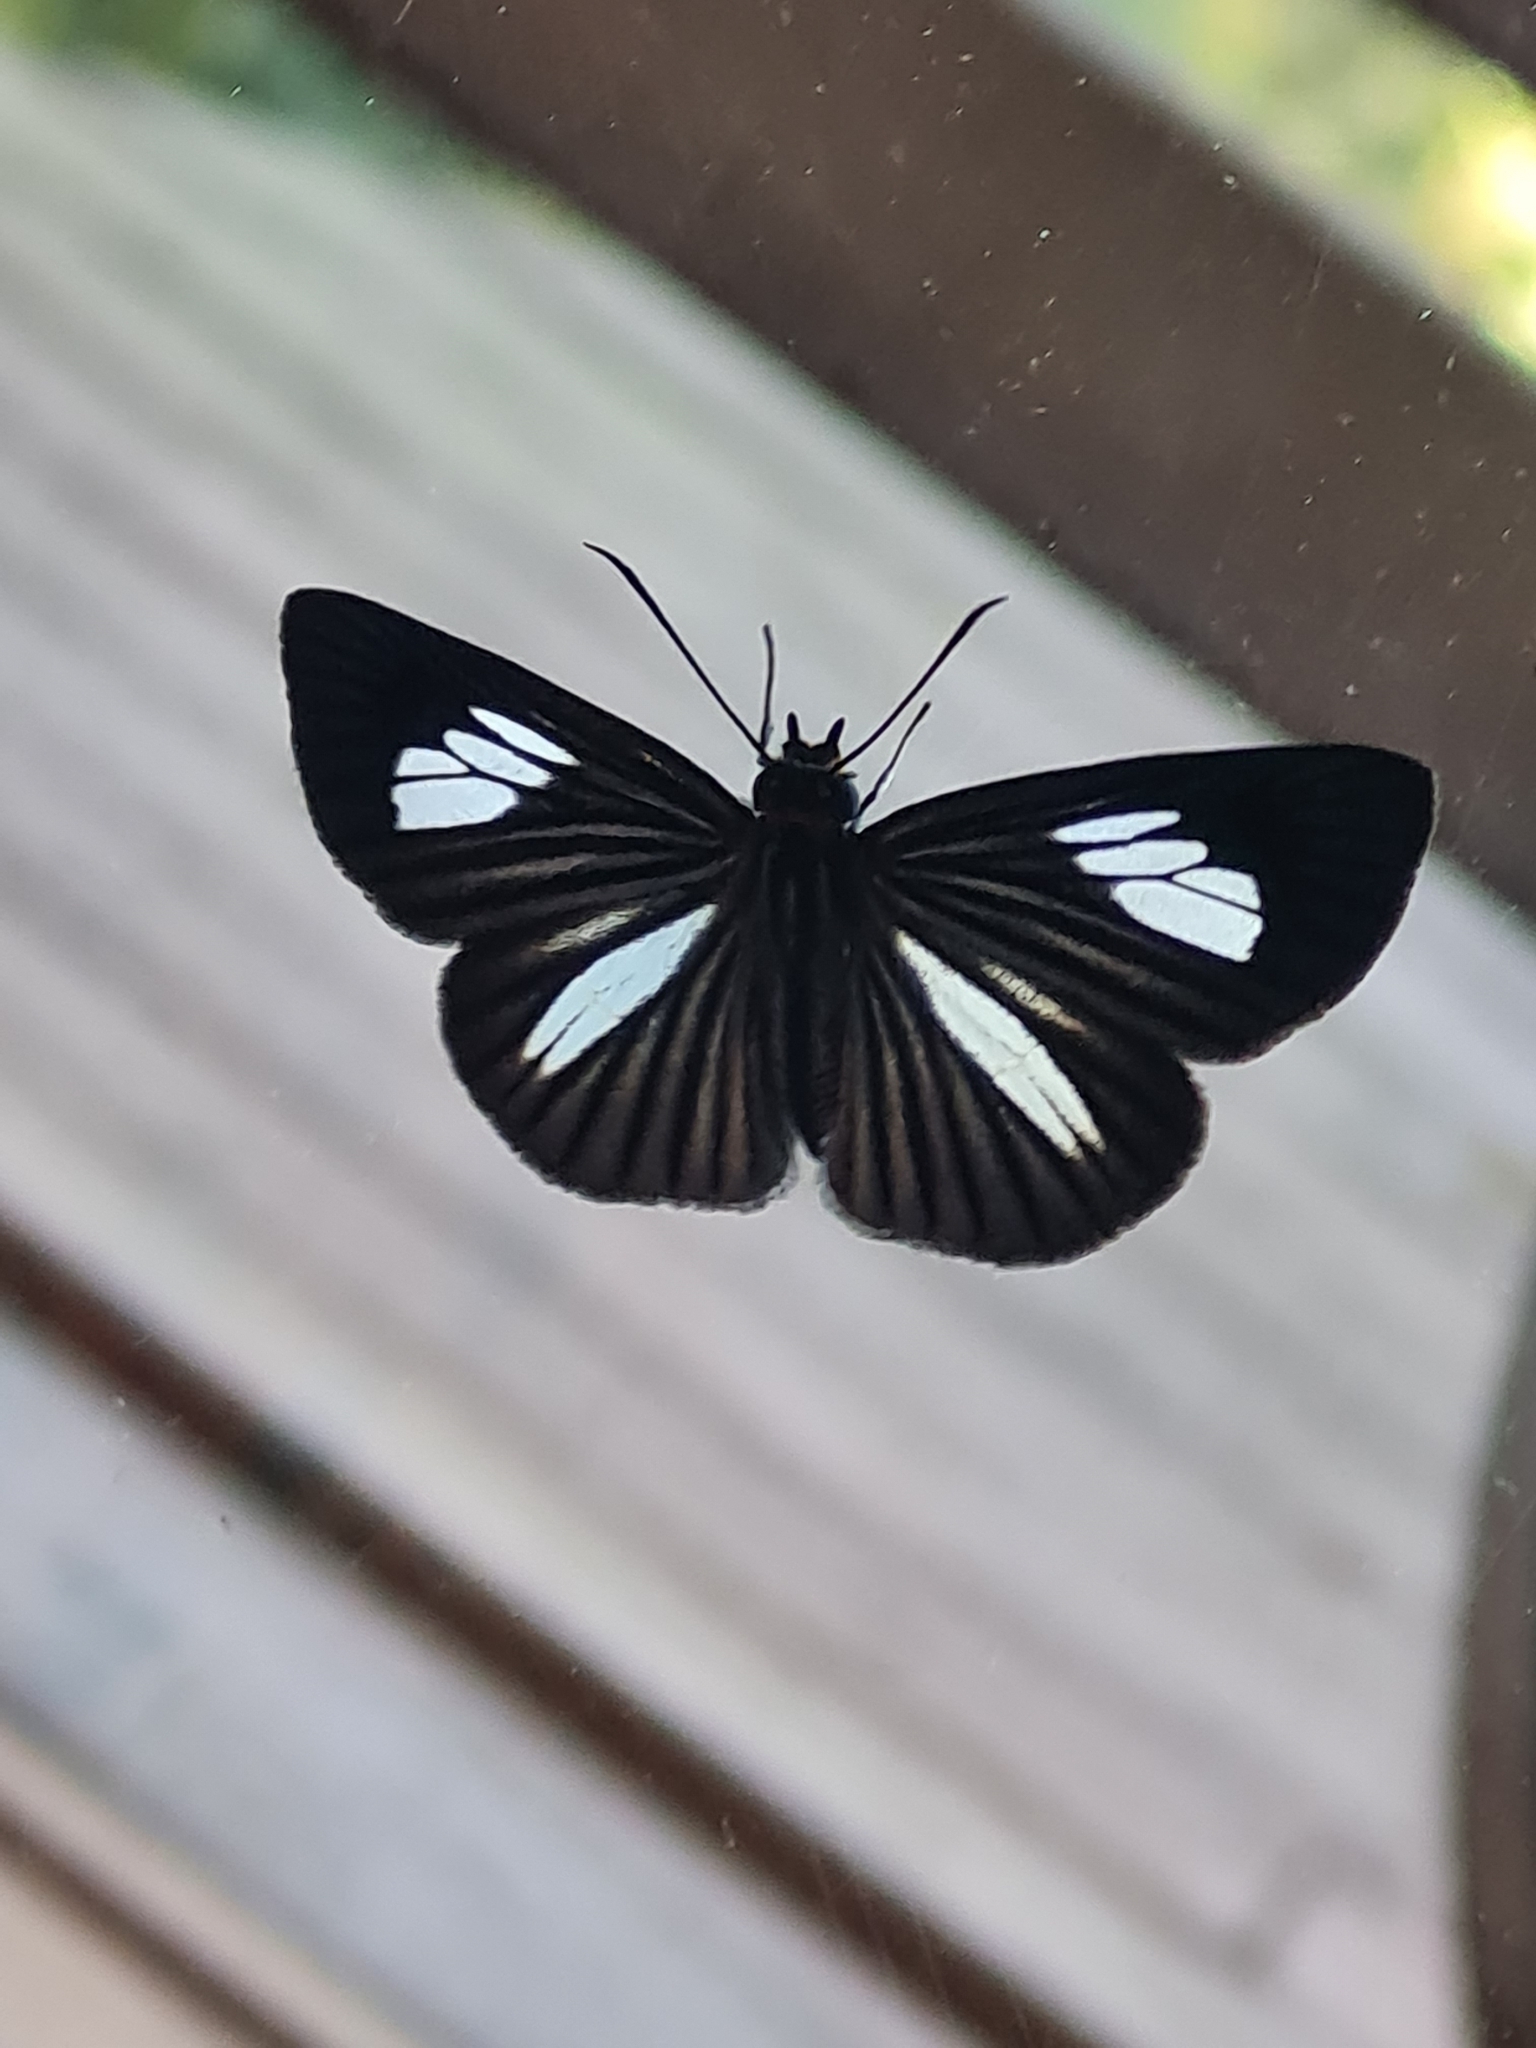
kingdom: Animalia
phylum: Arthropoda
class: Insecta
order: Lepidoptera
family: Hesperiidae
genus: Pythonides
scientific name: Pythonides lancea
